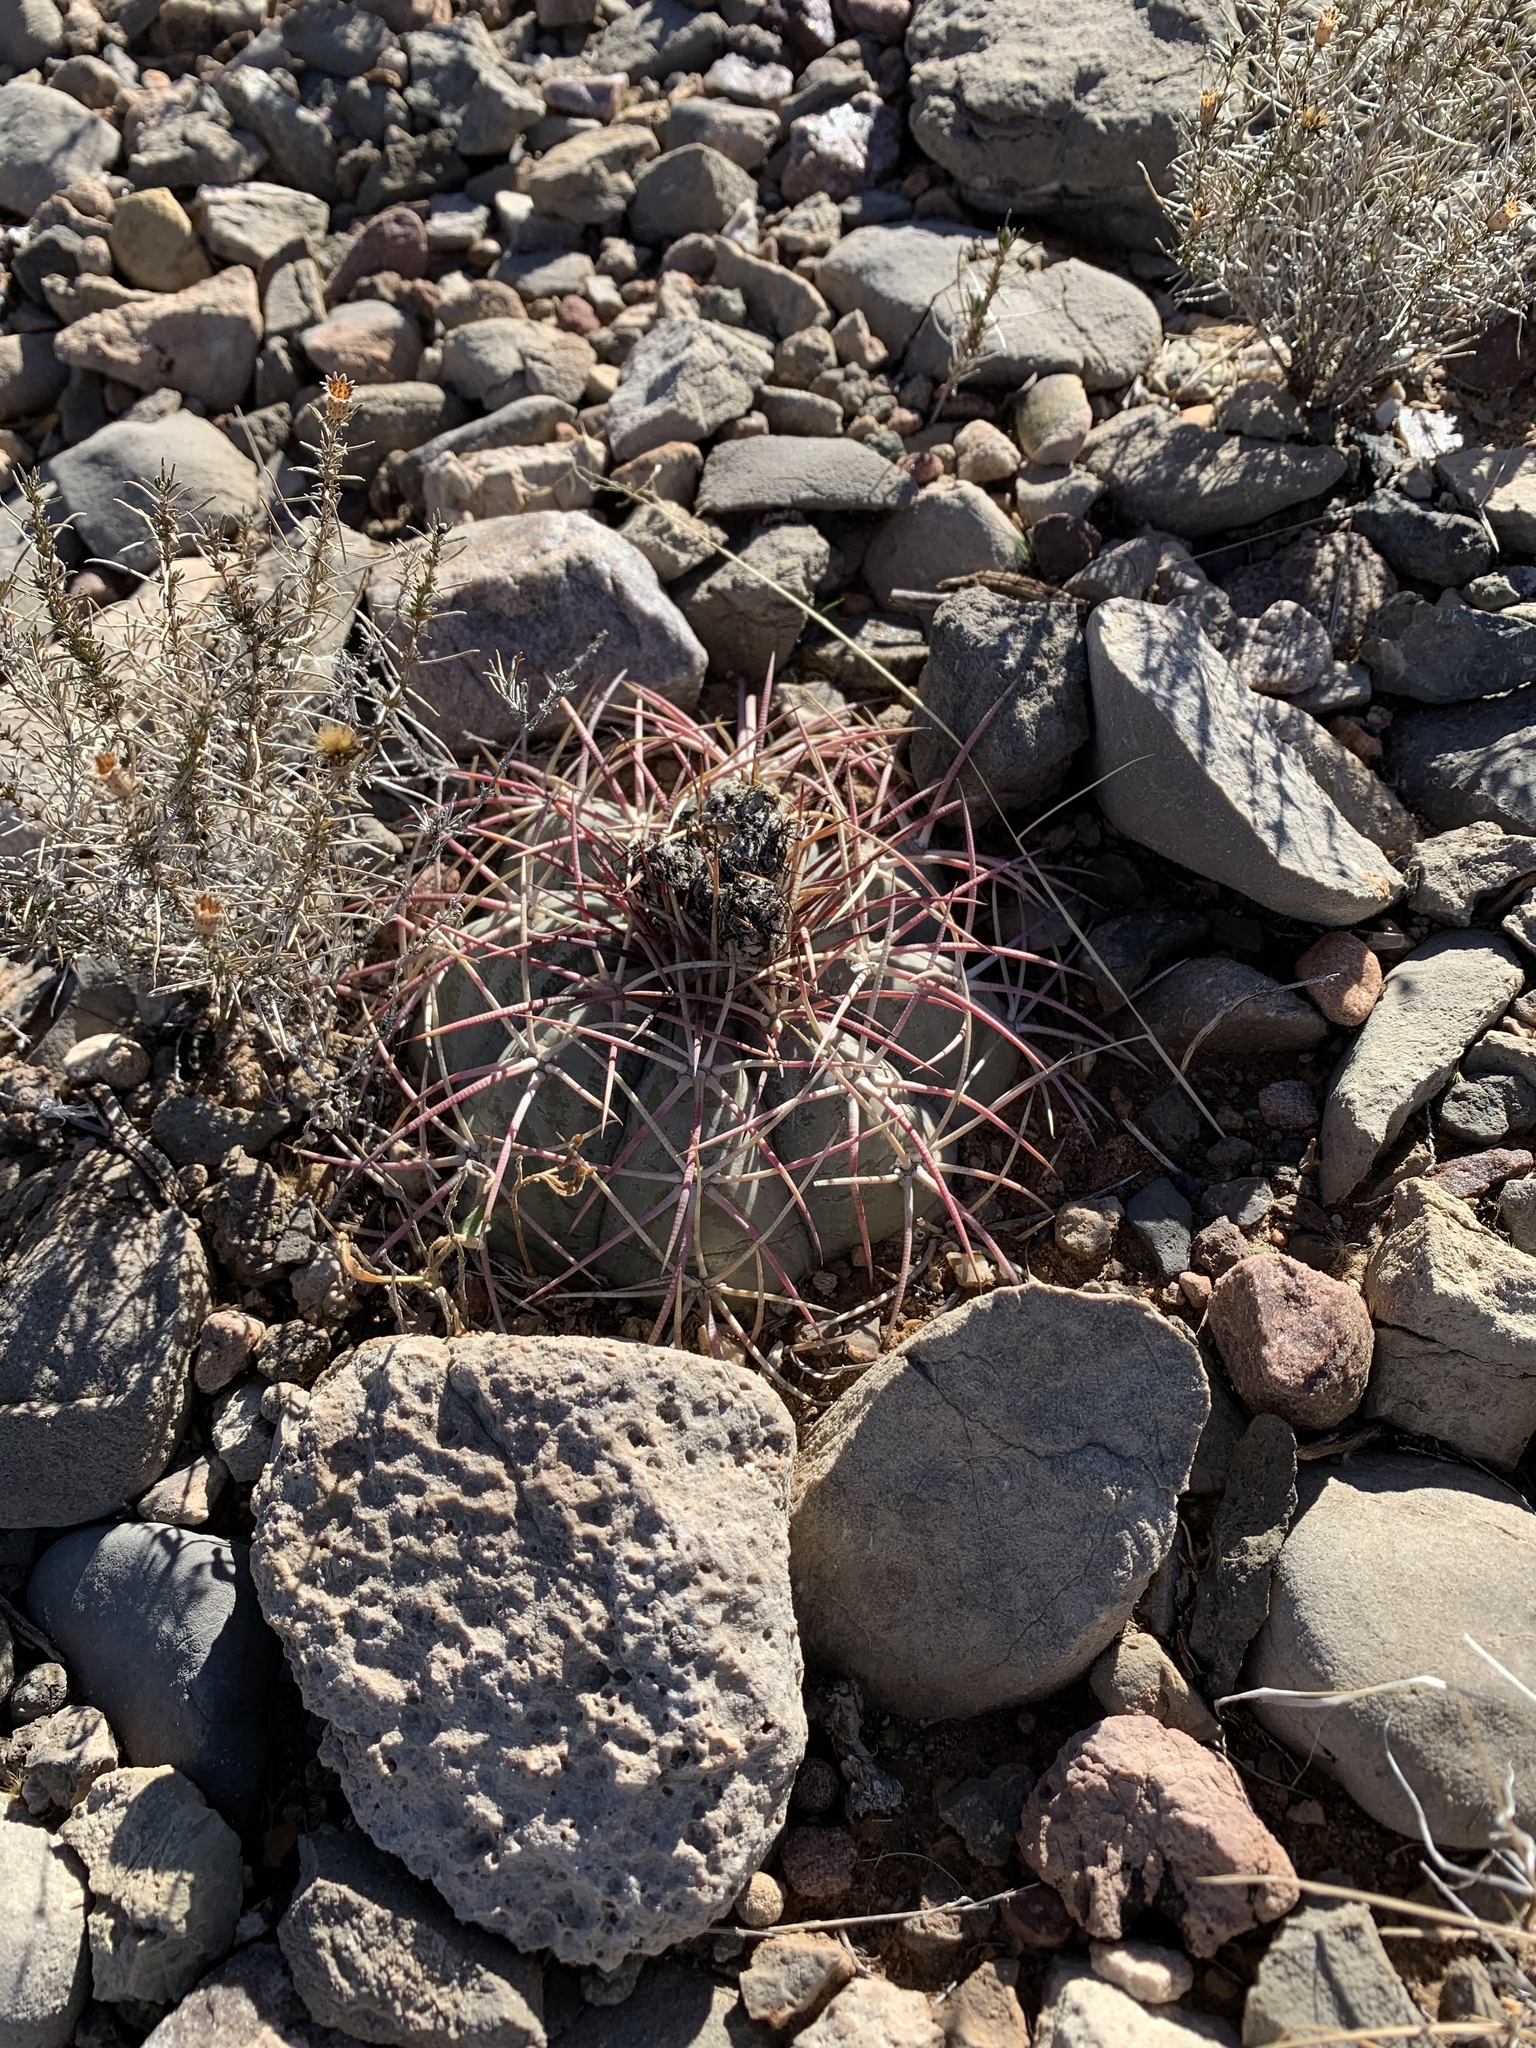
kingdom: Plantae
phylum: Tracheophyta
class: Magnoliopsida
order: Caryophyllales
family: Cactaceae
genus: Echinocactus
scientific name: Echinocactus horizonthalonius
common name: Devilshead
